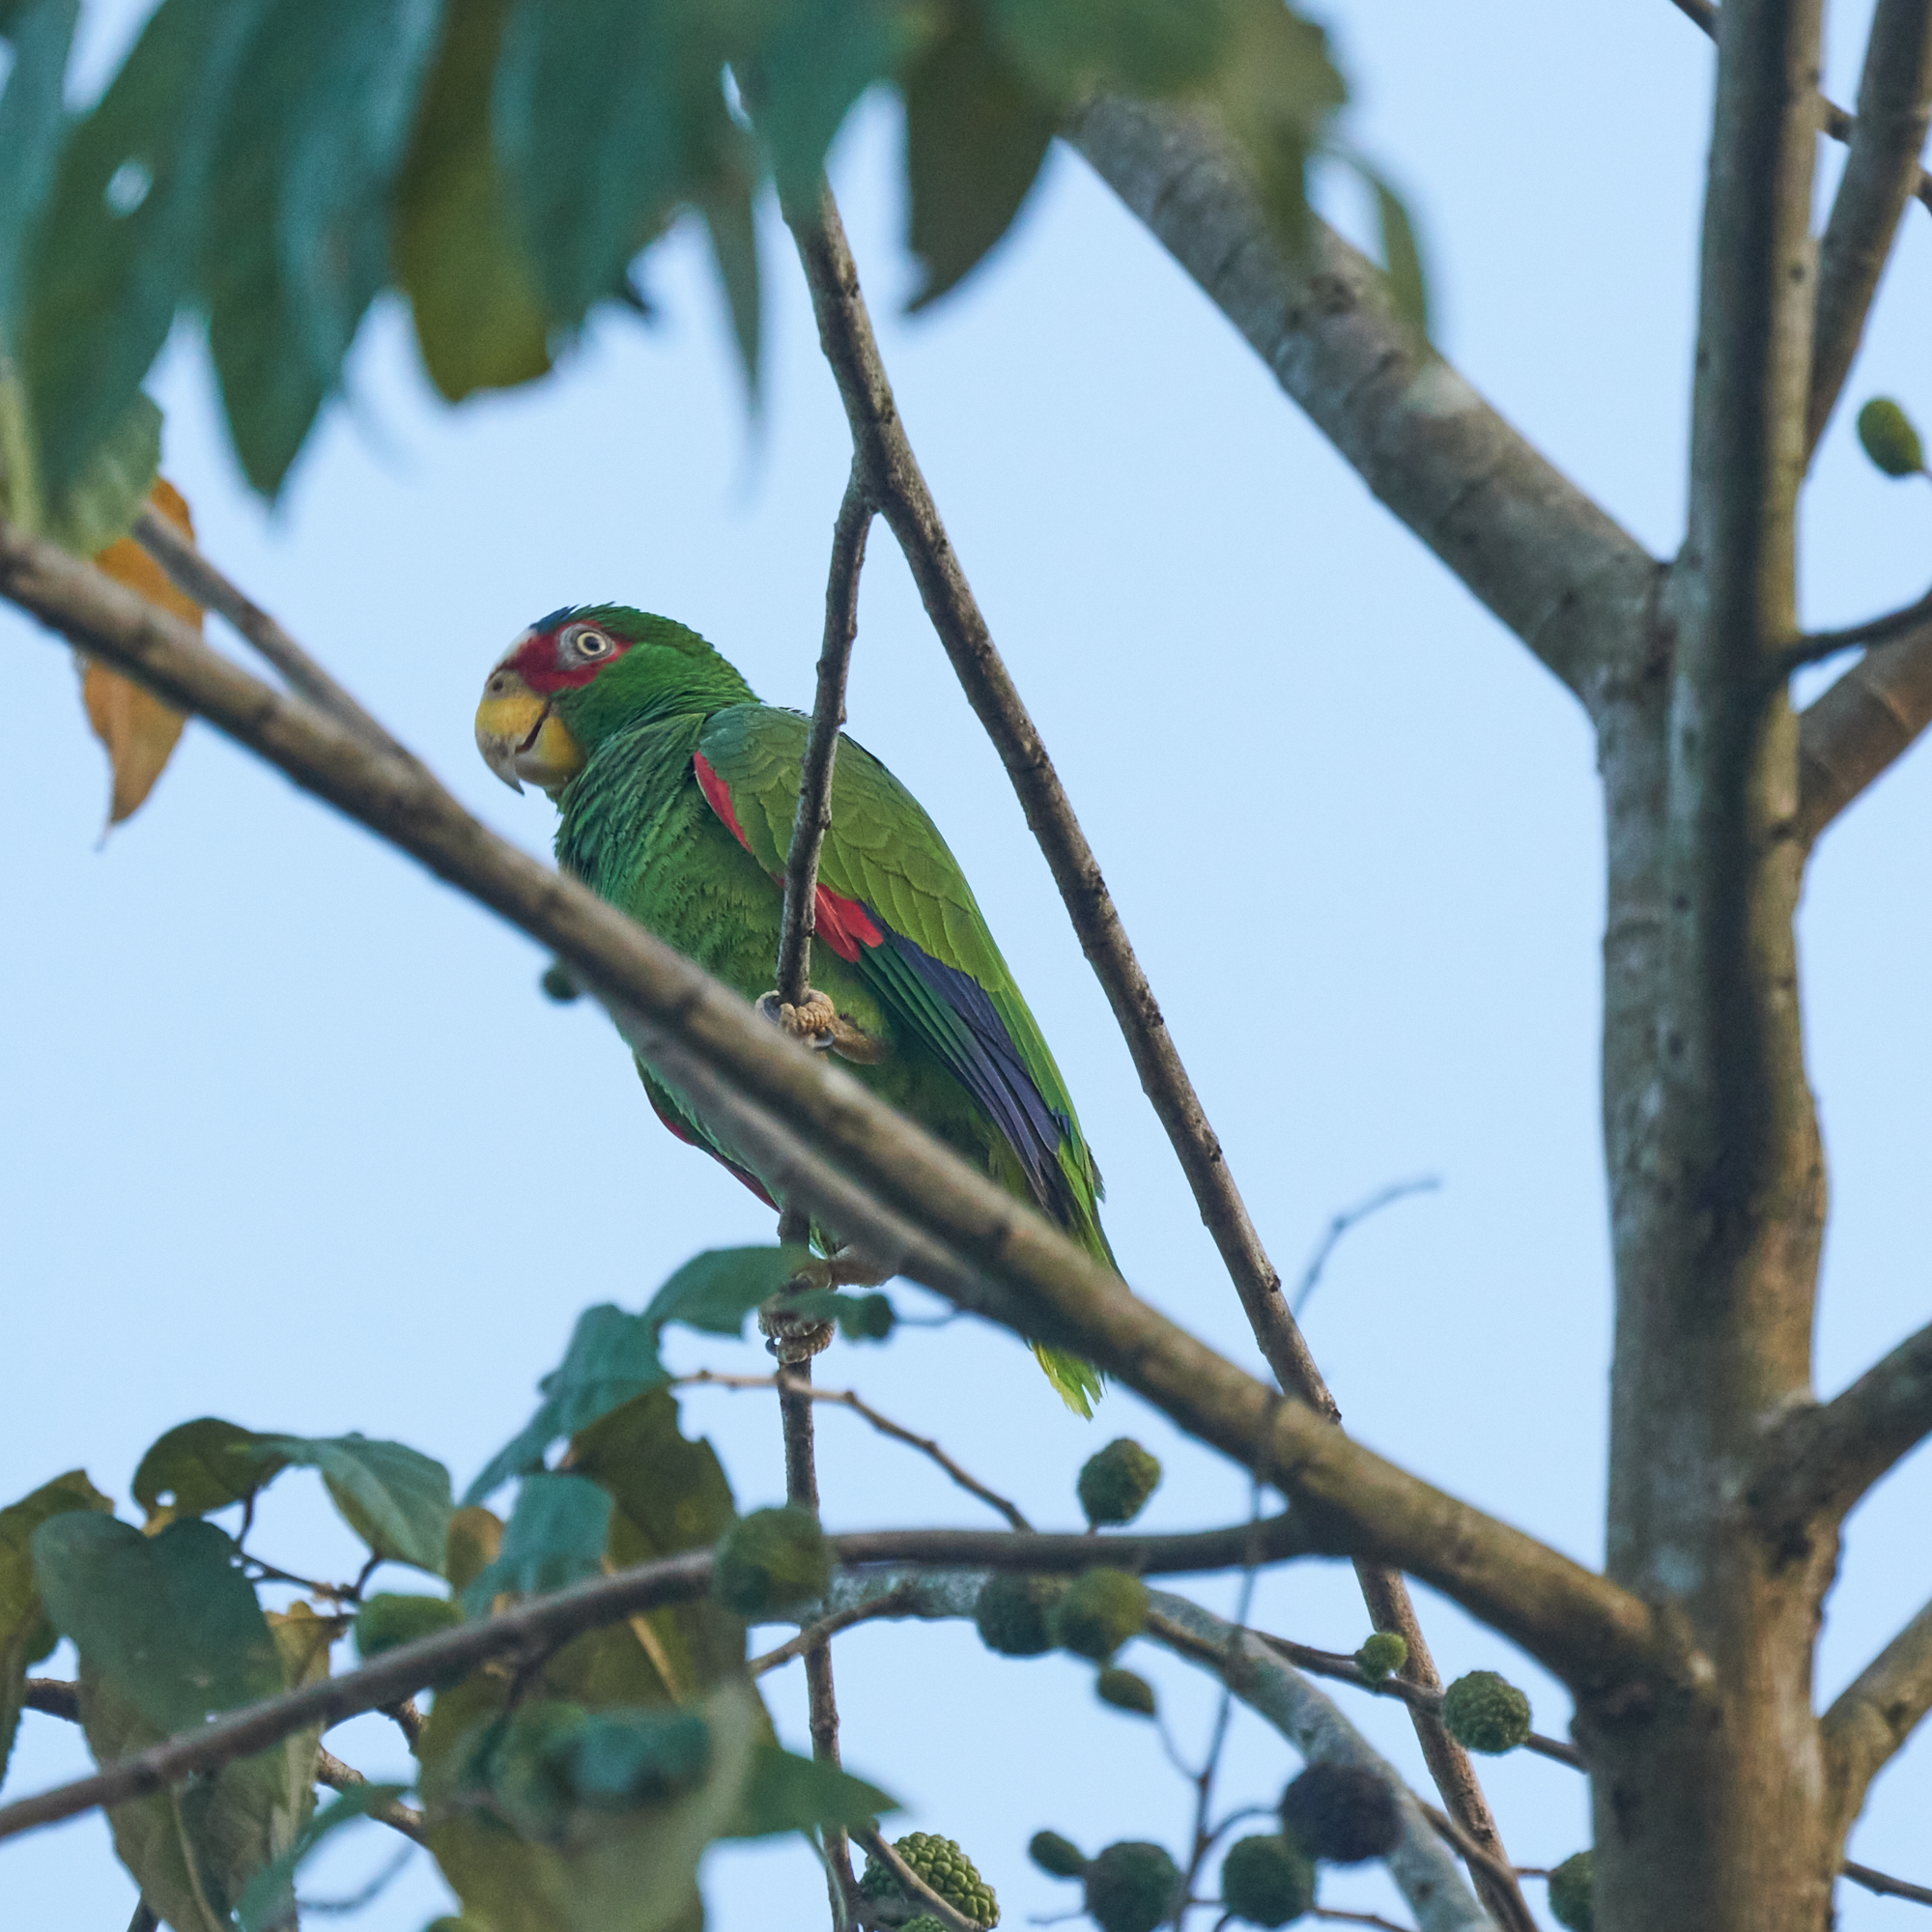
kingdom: Animalia
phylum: Chordata
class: Aves
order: Psittaciformes
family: Psittacidae
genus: Amazona
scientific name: Amazona albifrons
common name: White-fronted amazon
